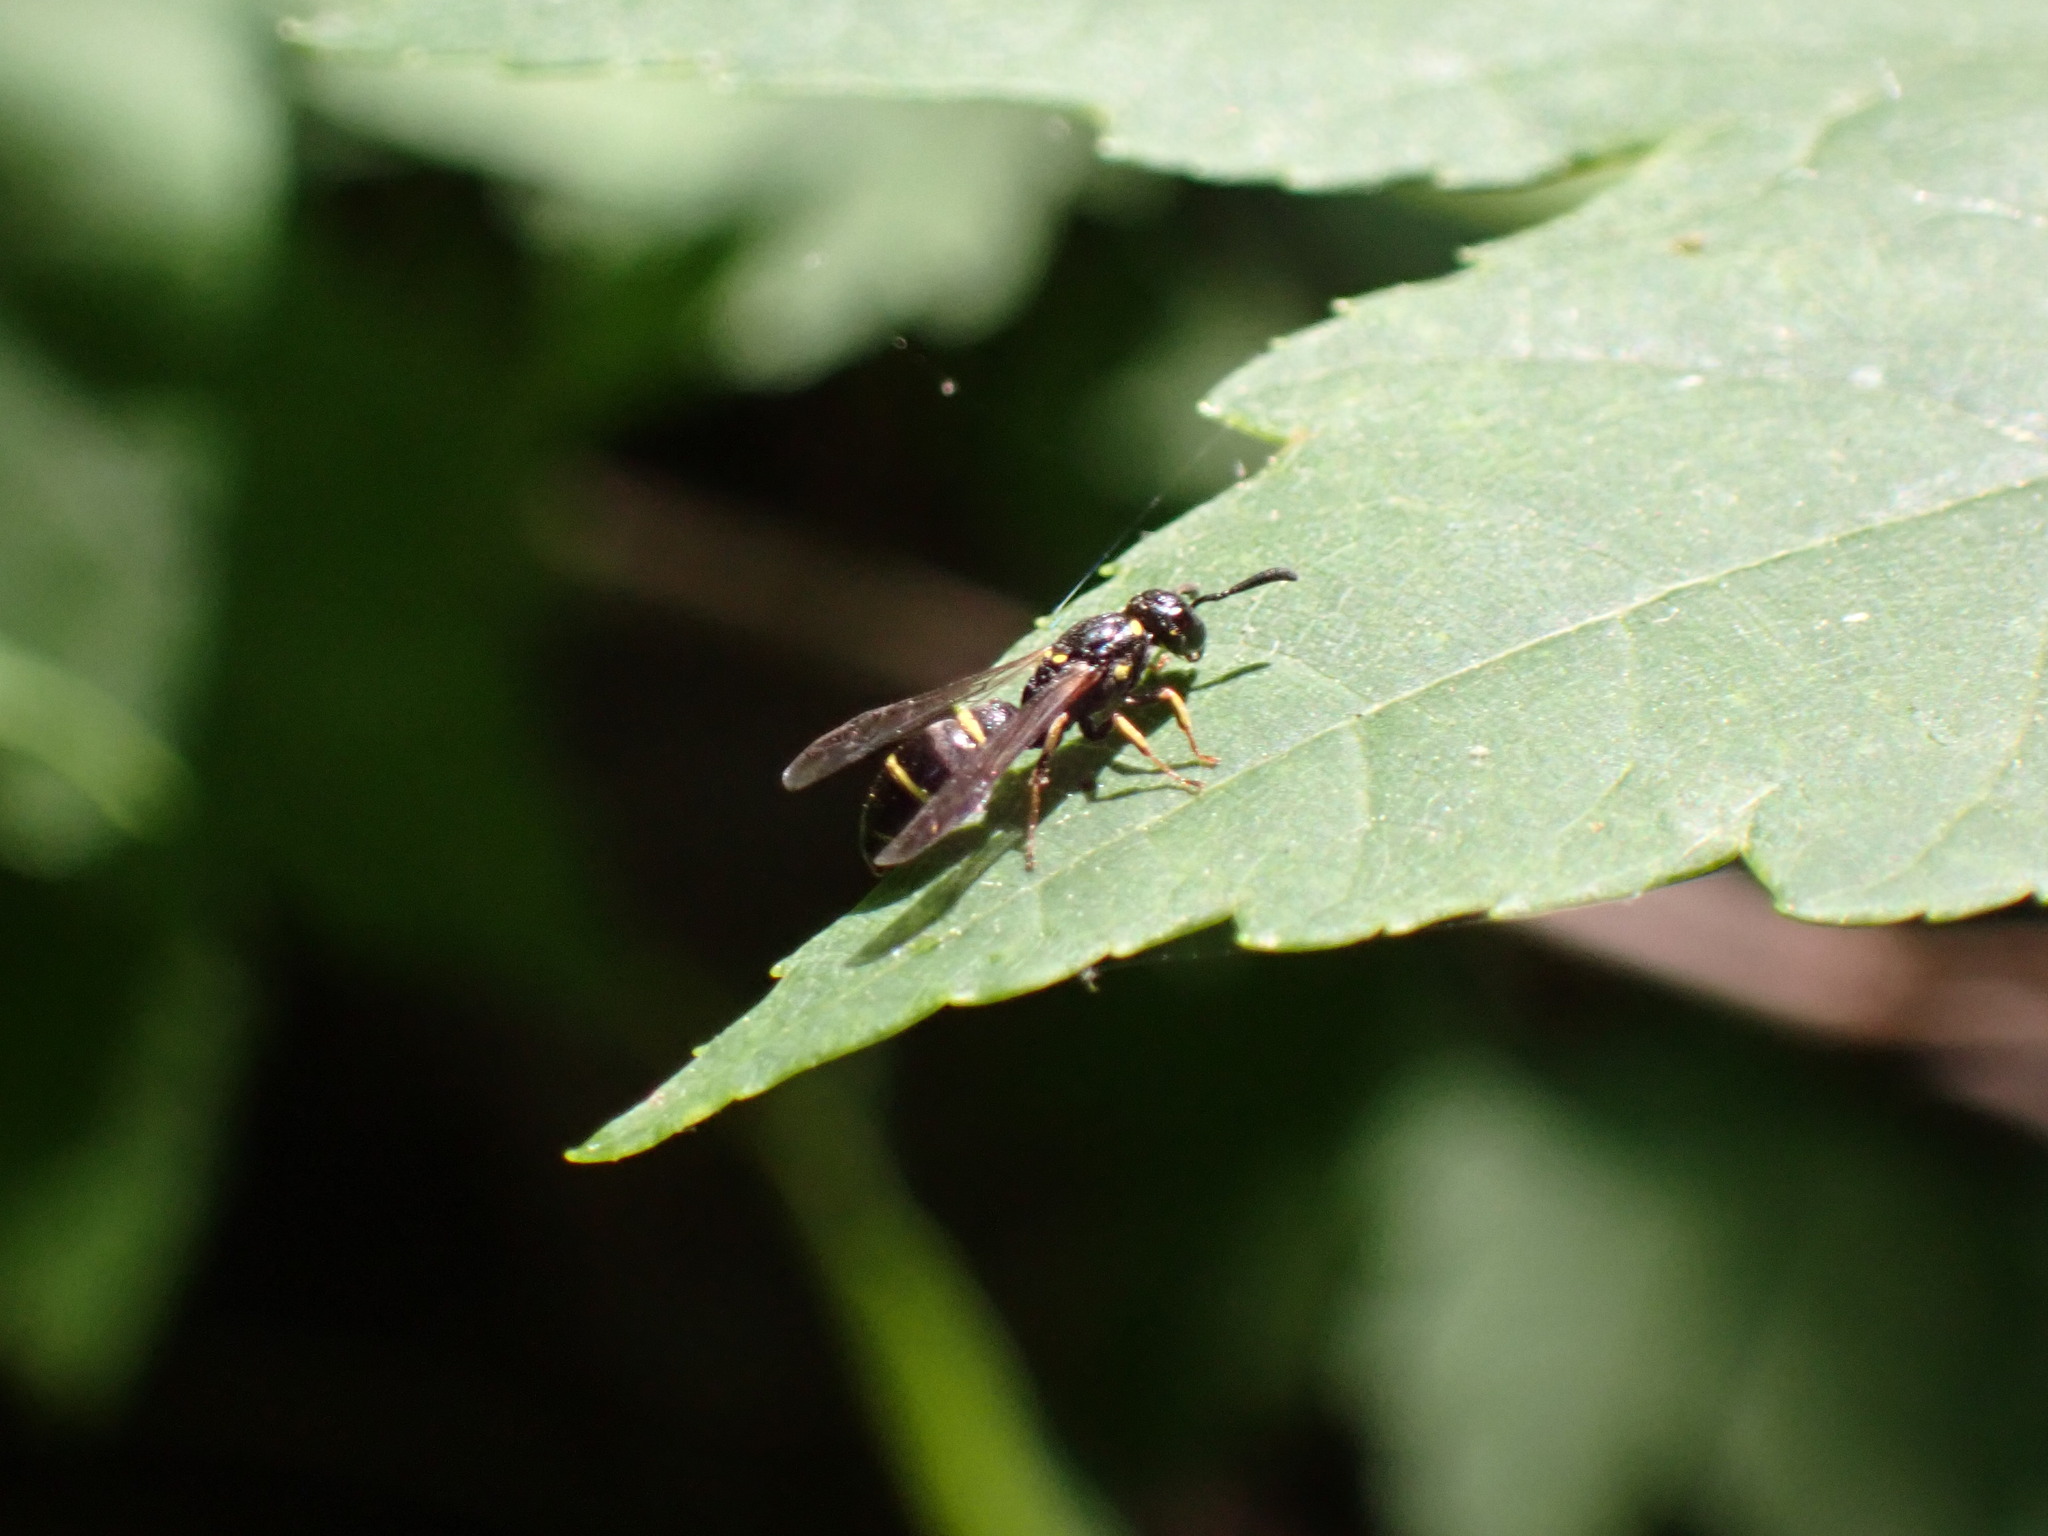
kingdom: Animalia
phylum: Arthropoda
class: Insecta
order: Hymenoptera
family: Eumenidae
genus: Symmorphus
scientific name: Symmorphus canadensis
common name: Canadian potter wasp
